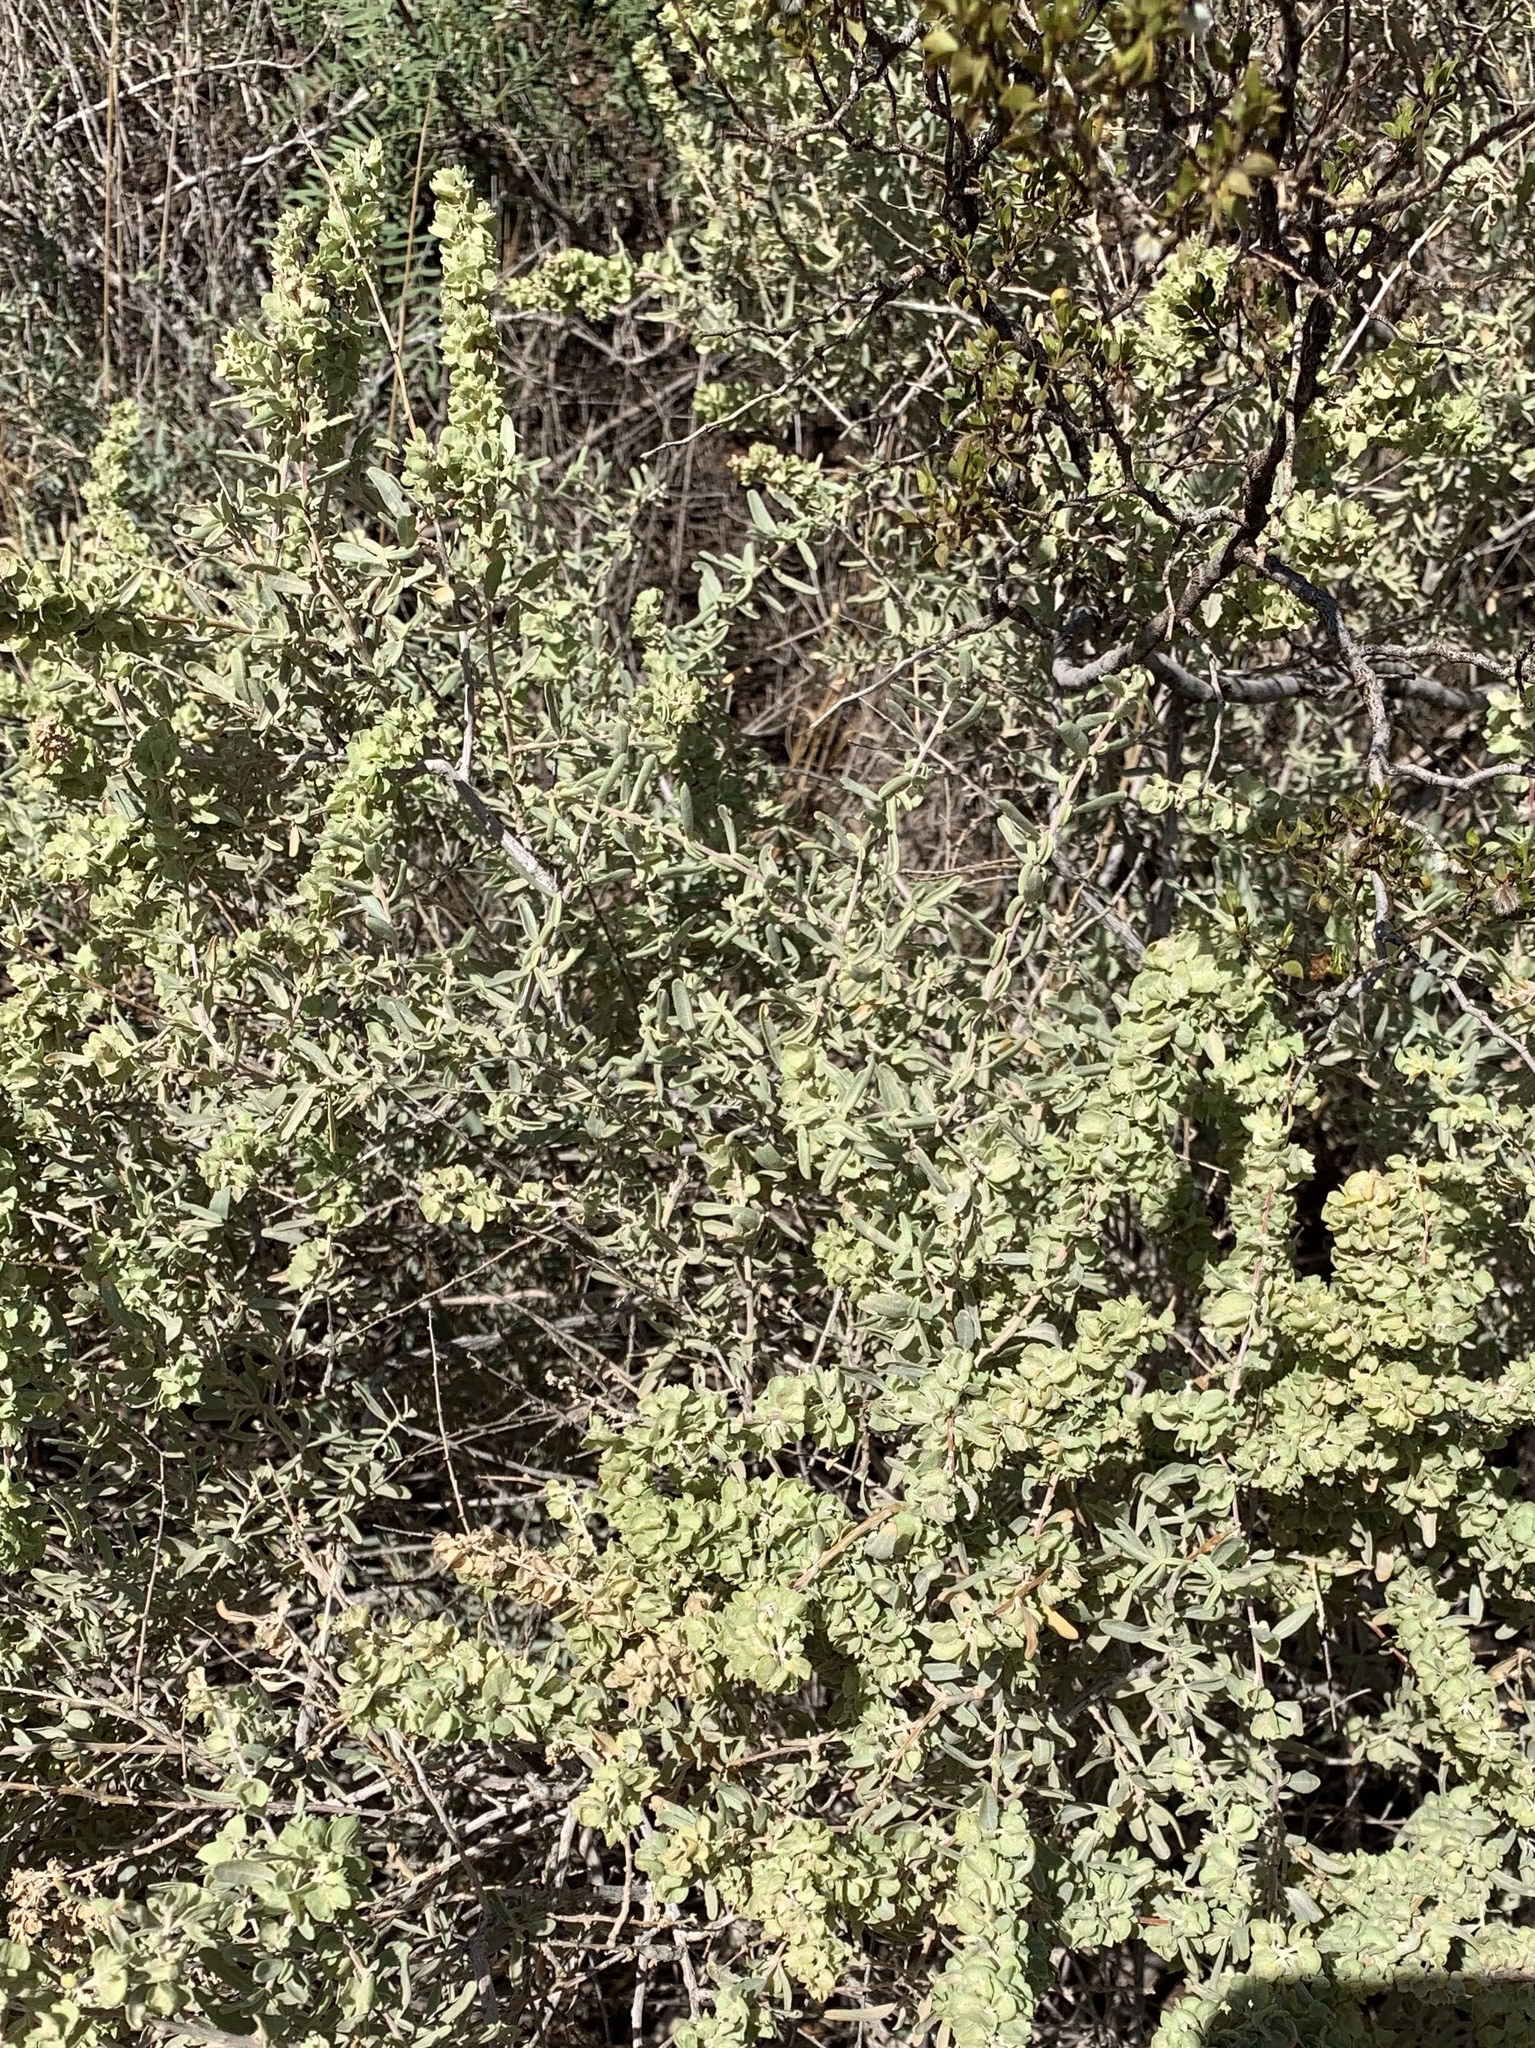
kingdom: Plantae
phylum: Tracheophyta
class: Magnoliopsida
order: Caryophyllales
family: Amaranthaceae
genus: Atriplex
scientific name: Atriplex canescens
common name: Four-wing saltbush
